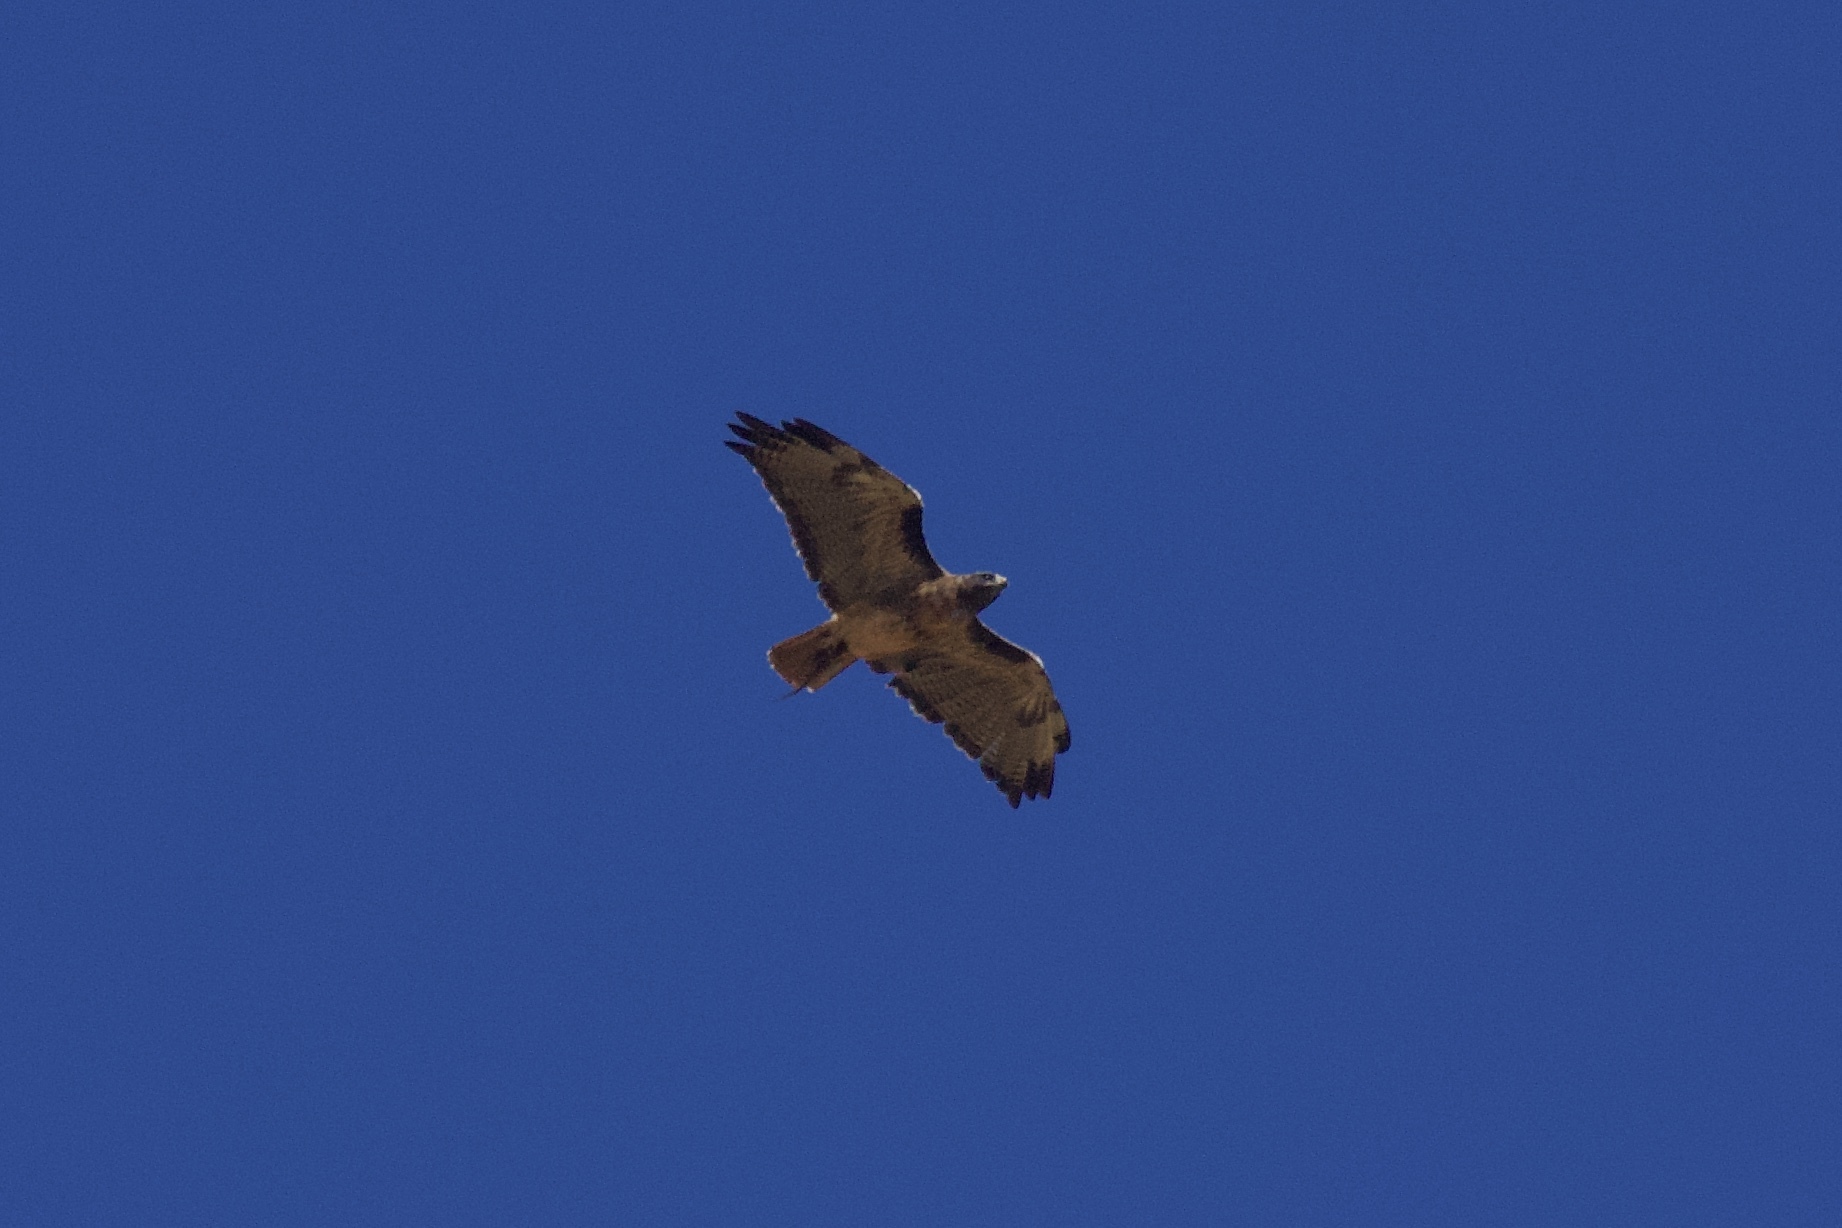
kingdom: Animalia
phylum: Chordata
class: Aves
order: Accipitriformes
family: Accipitridae
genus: Buteo
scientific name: Buteo jamaicensis
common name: Red-tailed hawk
